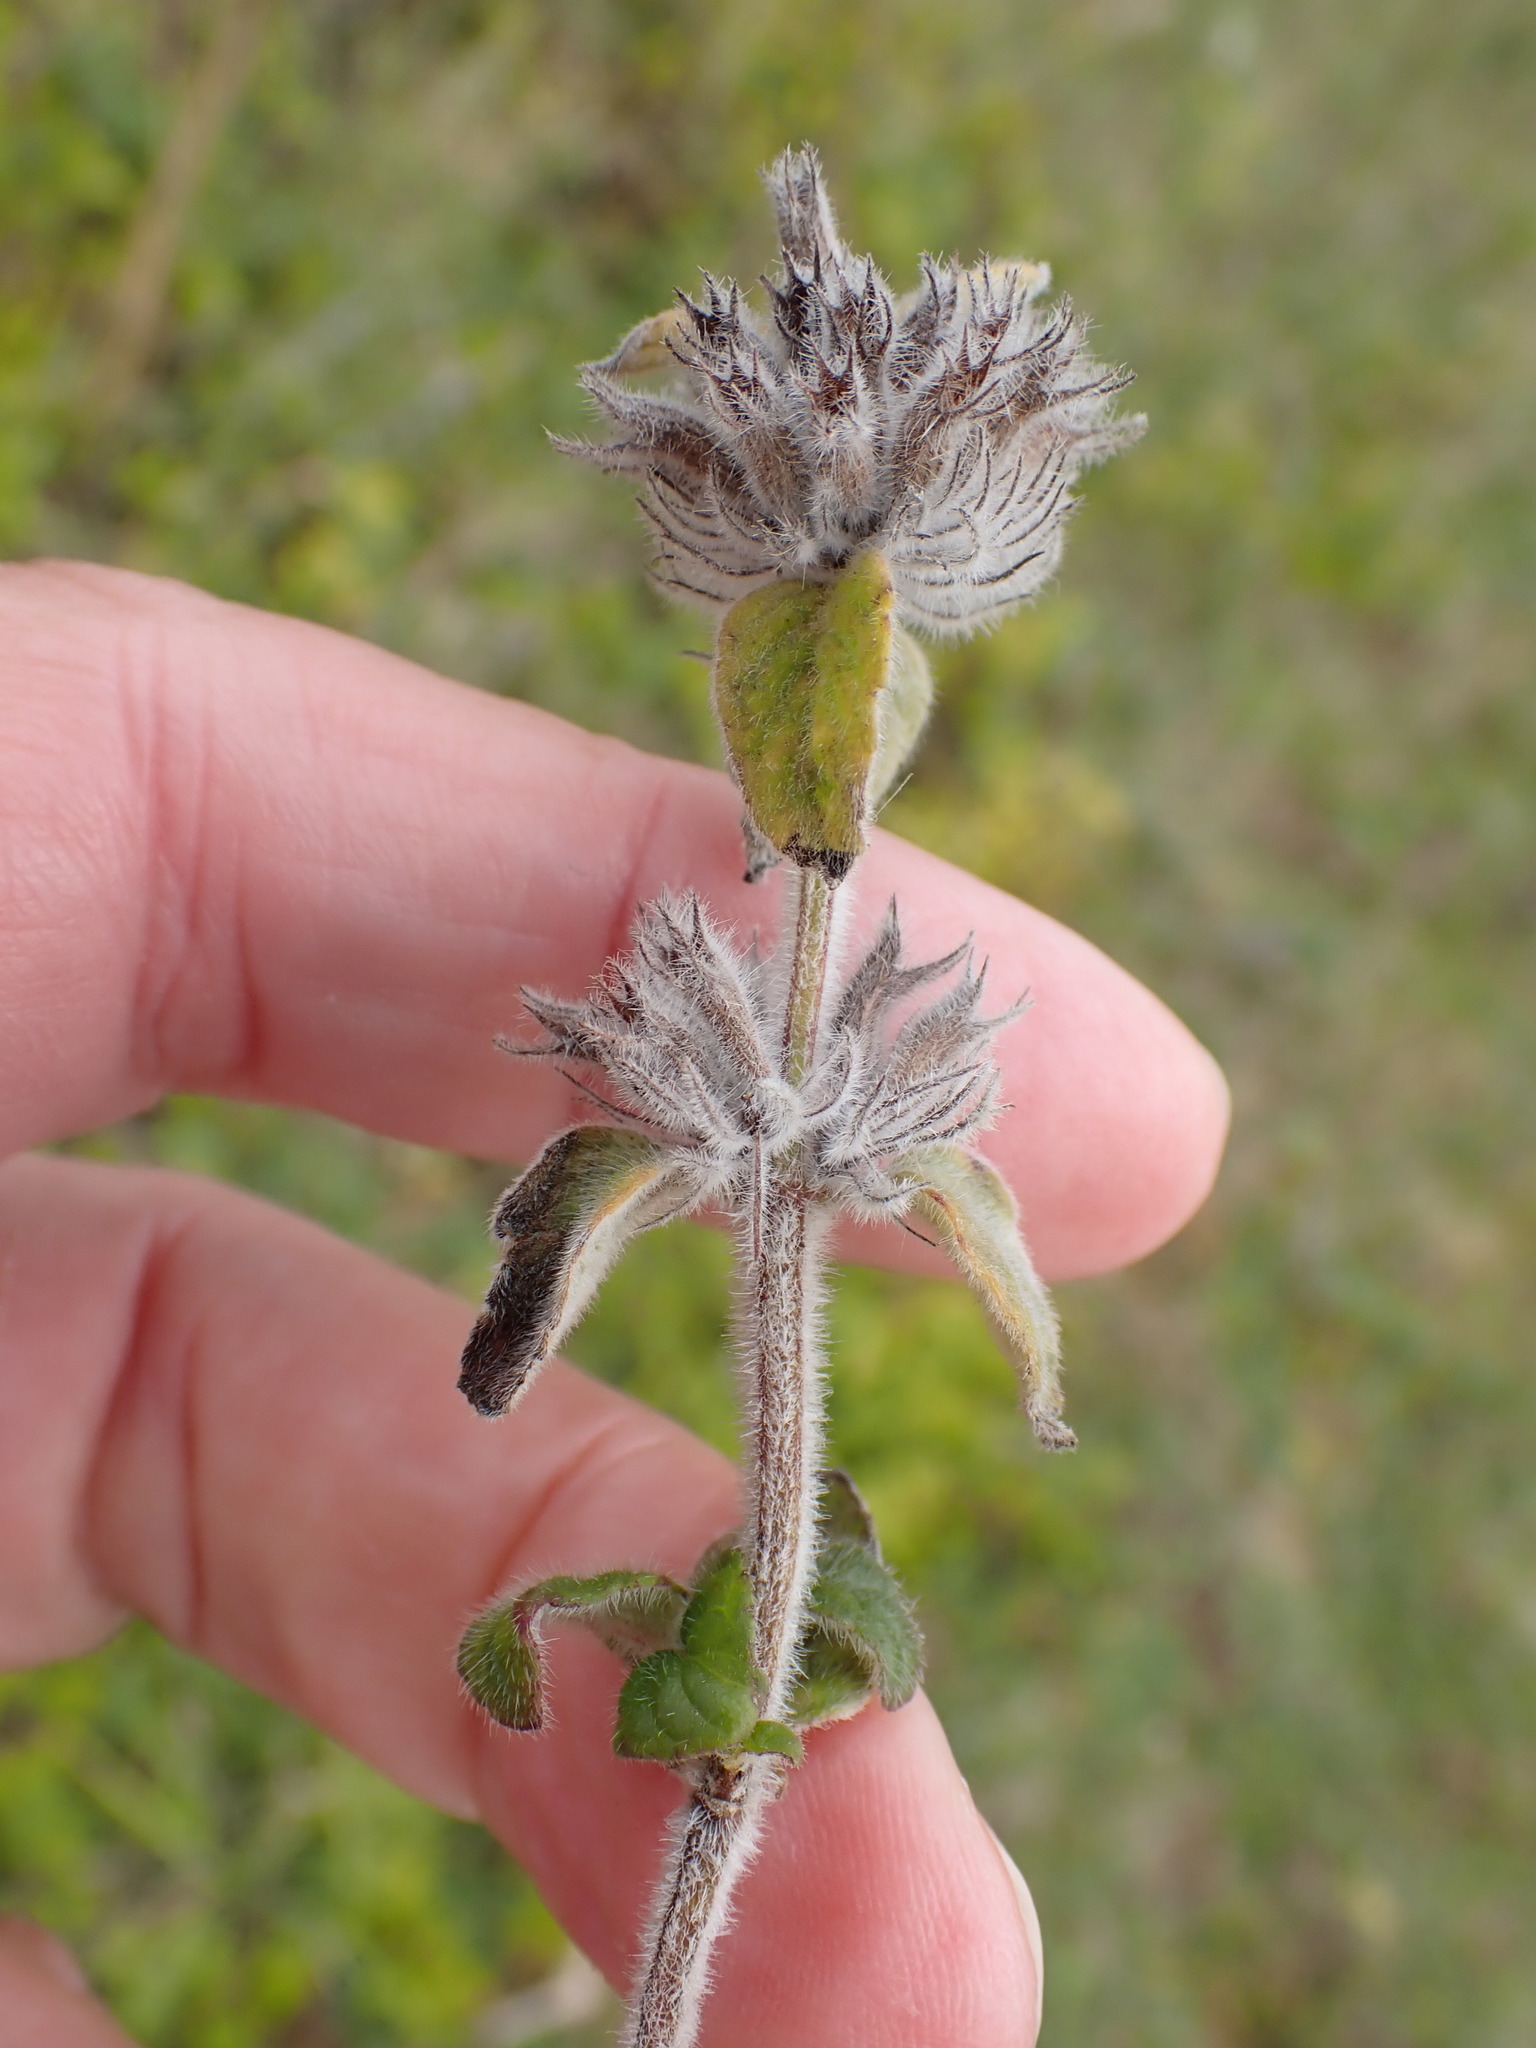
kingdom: Plantae
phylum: Tracheophyta
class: Magnoliopsida
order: Lamiales
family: Lamiaceae
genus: Clinopodium
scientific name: Clinopodium vulgare
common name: Wild basil
